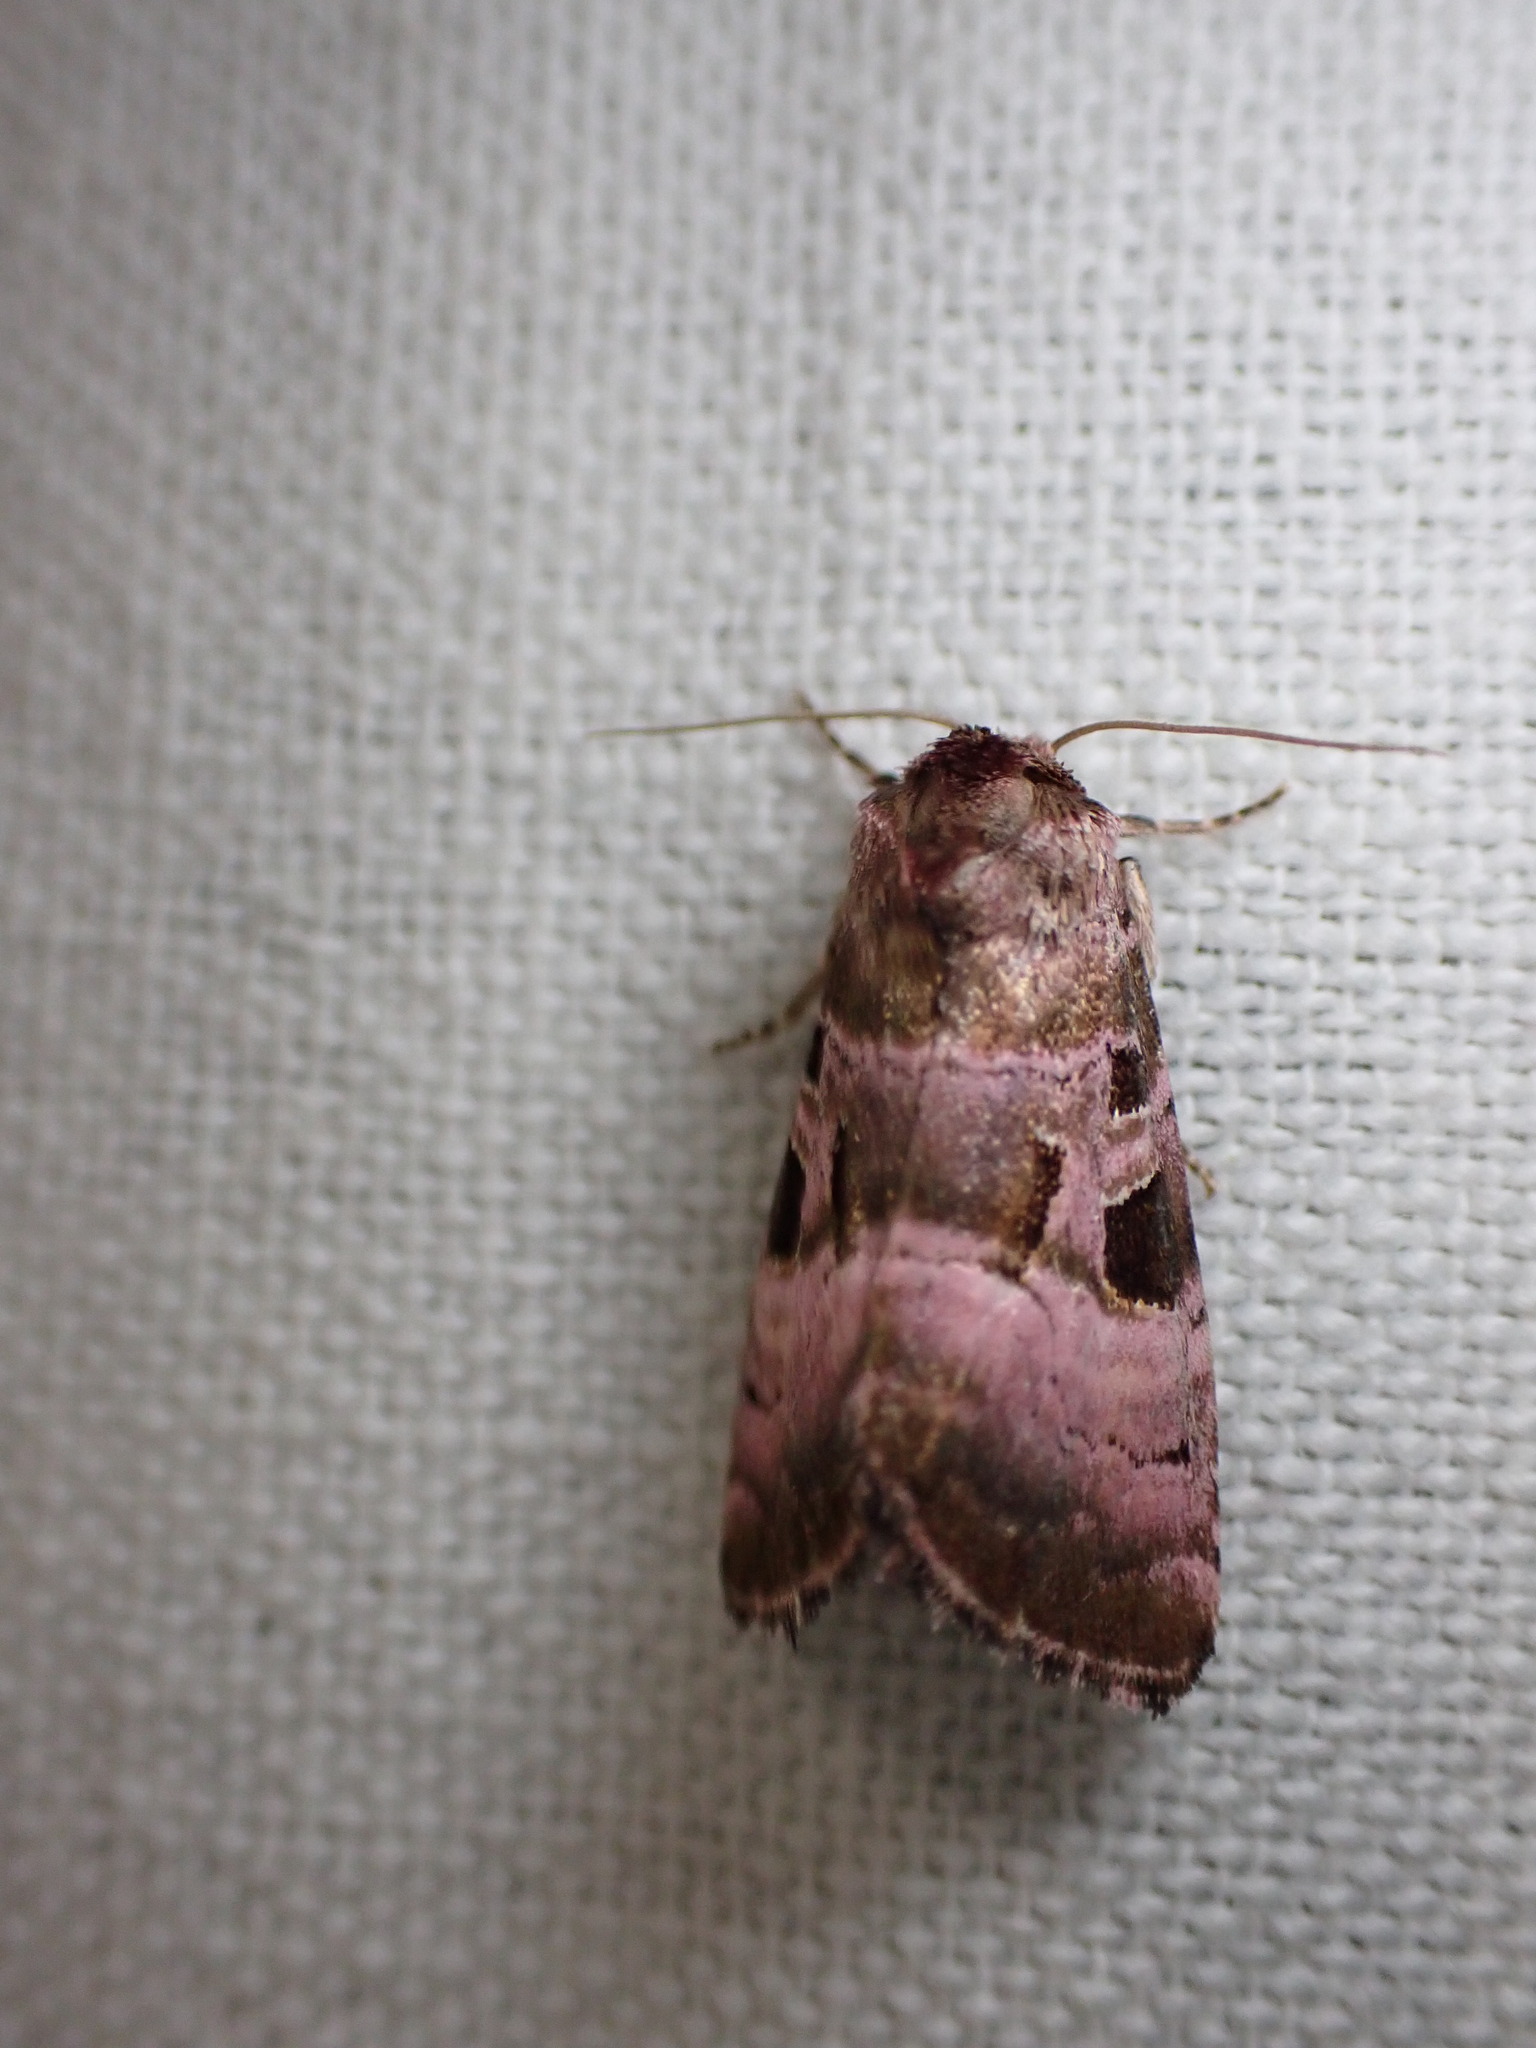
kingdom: Animalia
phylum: Arthropoda
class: Insecta
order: Lepidoptera
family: Noctuidae
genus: Eucarta
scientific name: Eucarta amethystina
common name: Cumberland green
